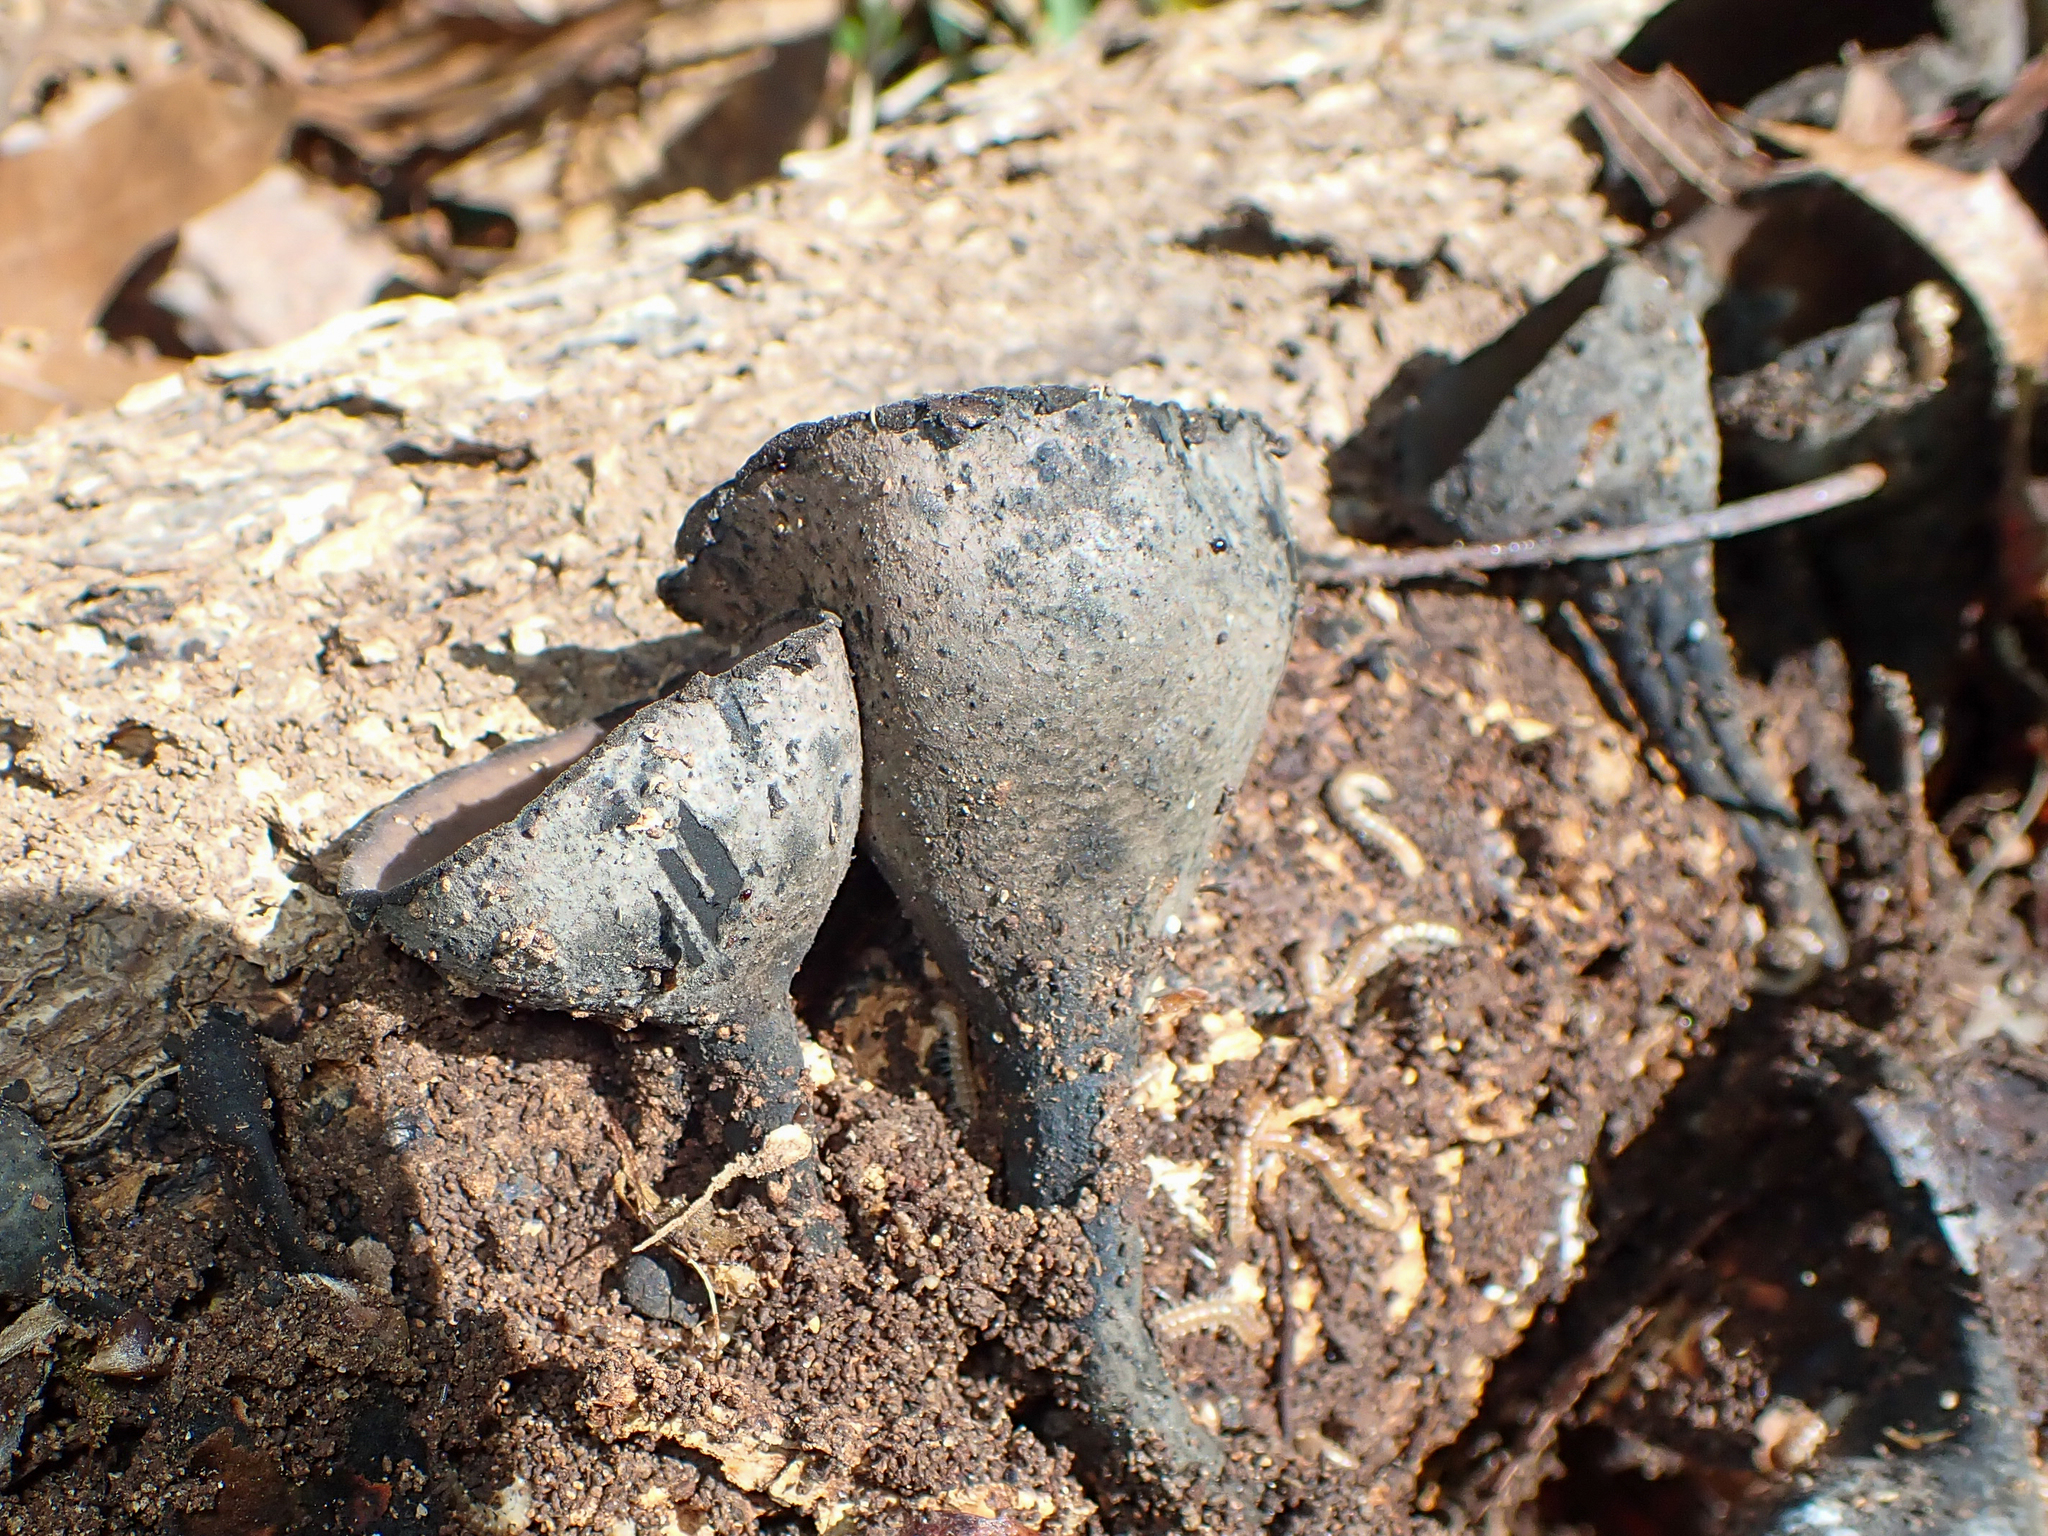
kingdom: Fungi
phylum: Ascomycota
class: Pezizomycetes
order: Pezizales
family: Sarcosomataceae
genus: Urnula
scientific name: Urnula craterium
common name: Devil's urn
